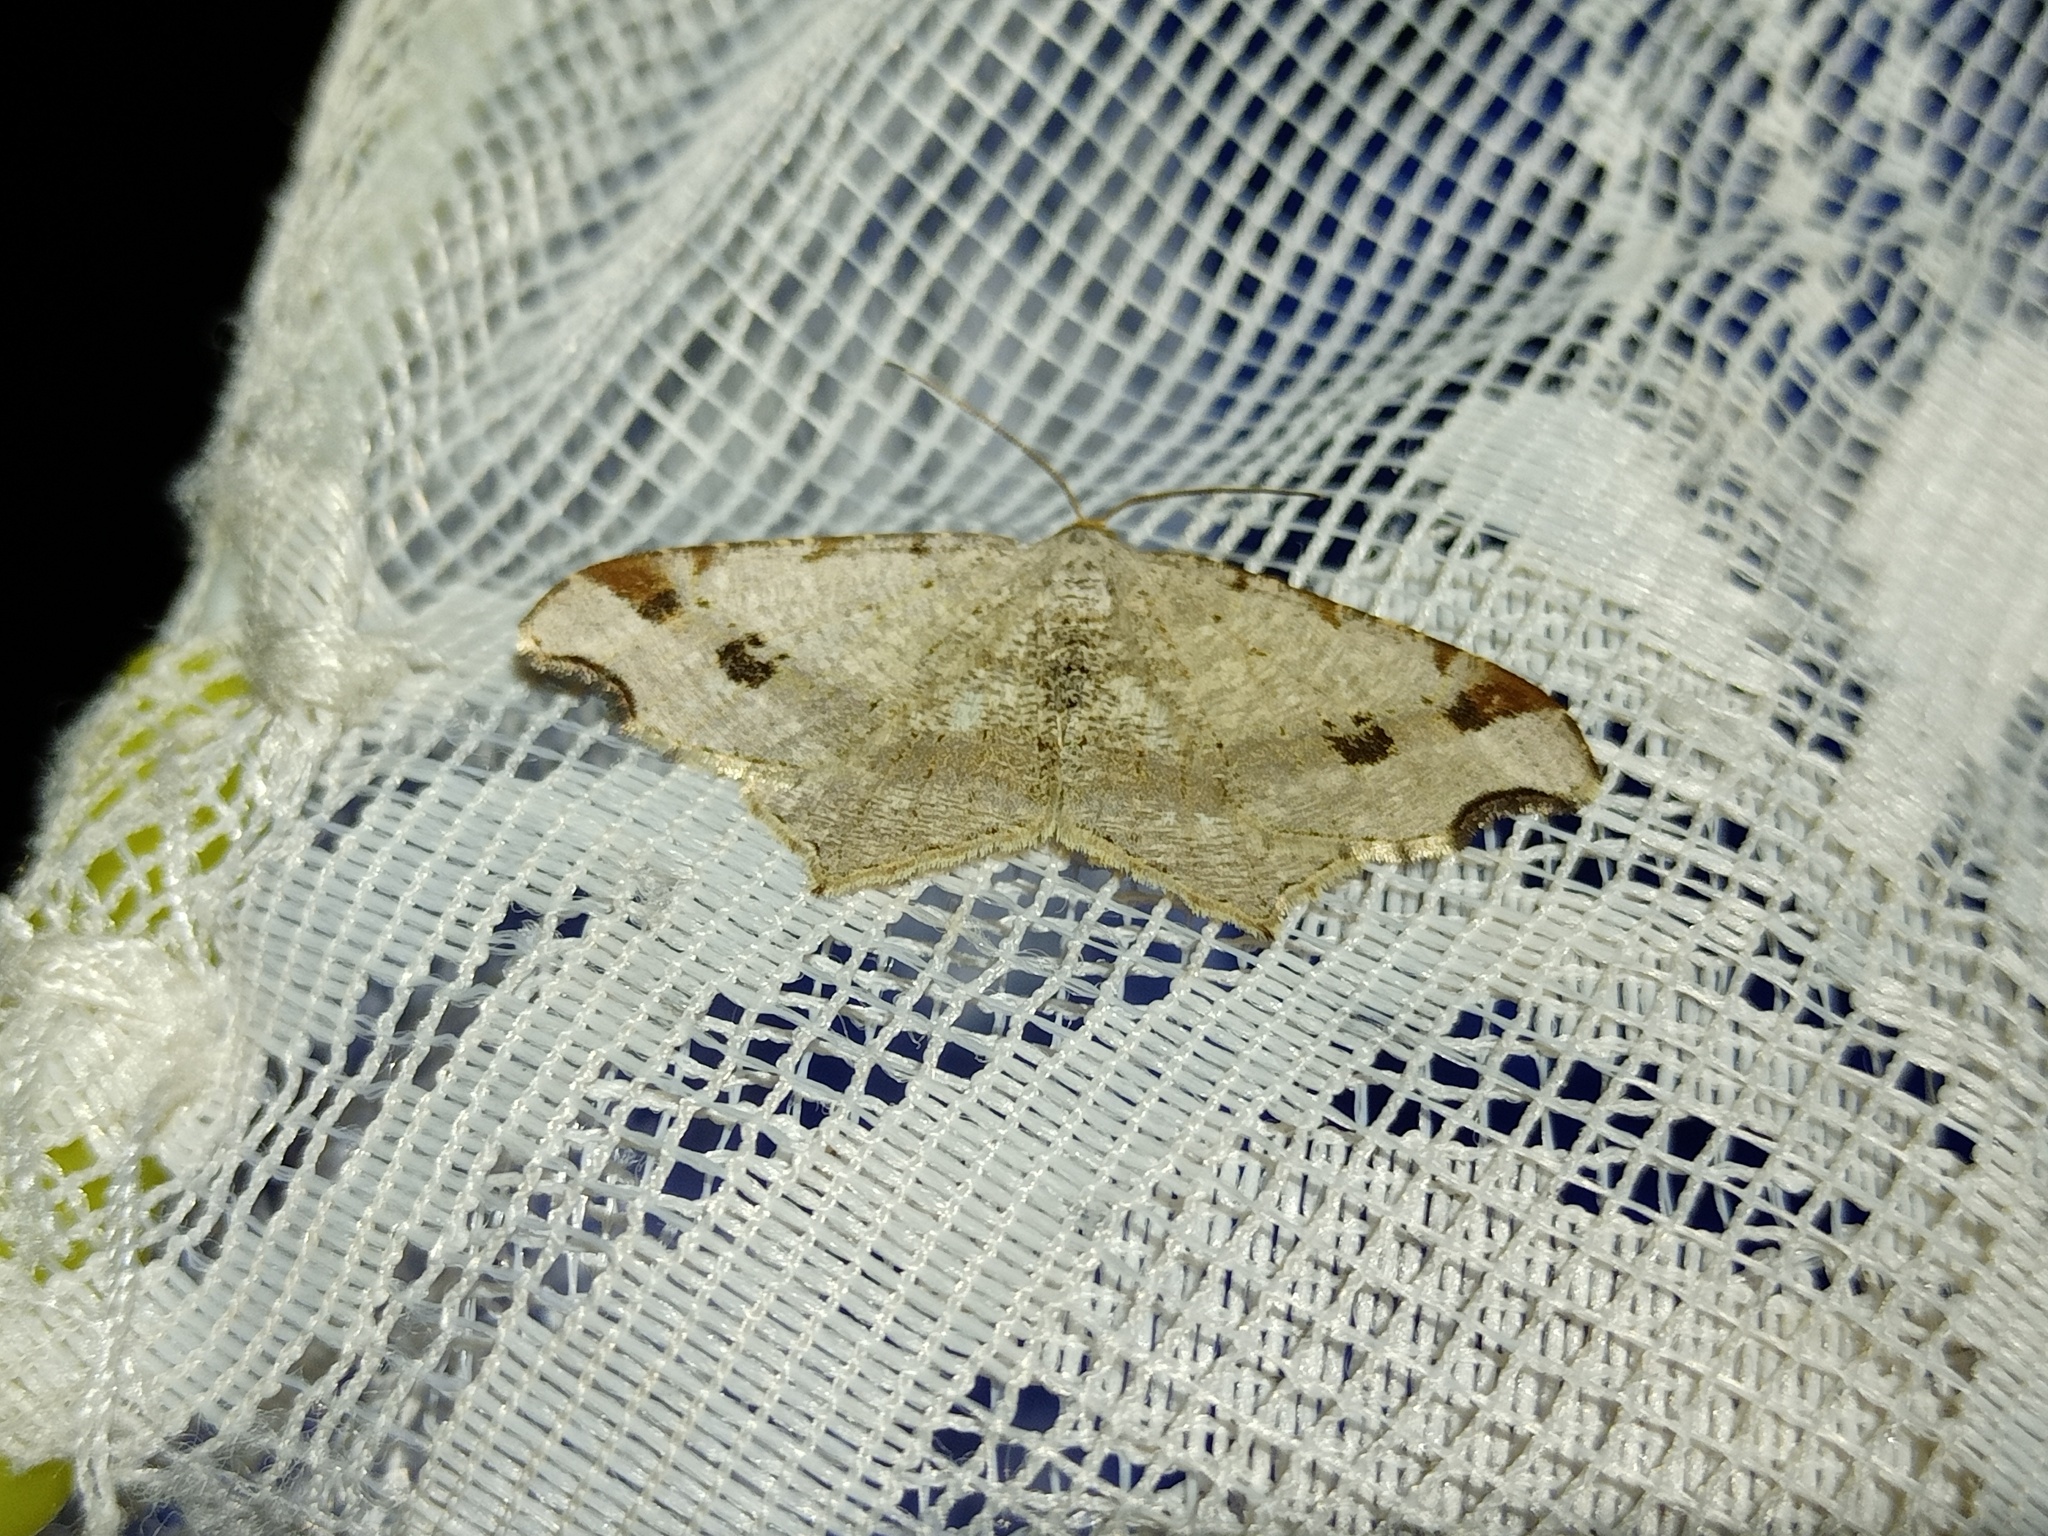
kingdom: Animalia
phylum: Arthropoda
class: Insecta
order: Lepidoptera
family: Geometridae
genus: Macaria
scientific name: Macaria alternata
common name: Sharp-angled peacock
